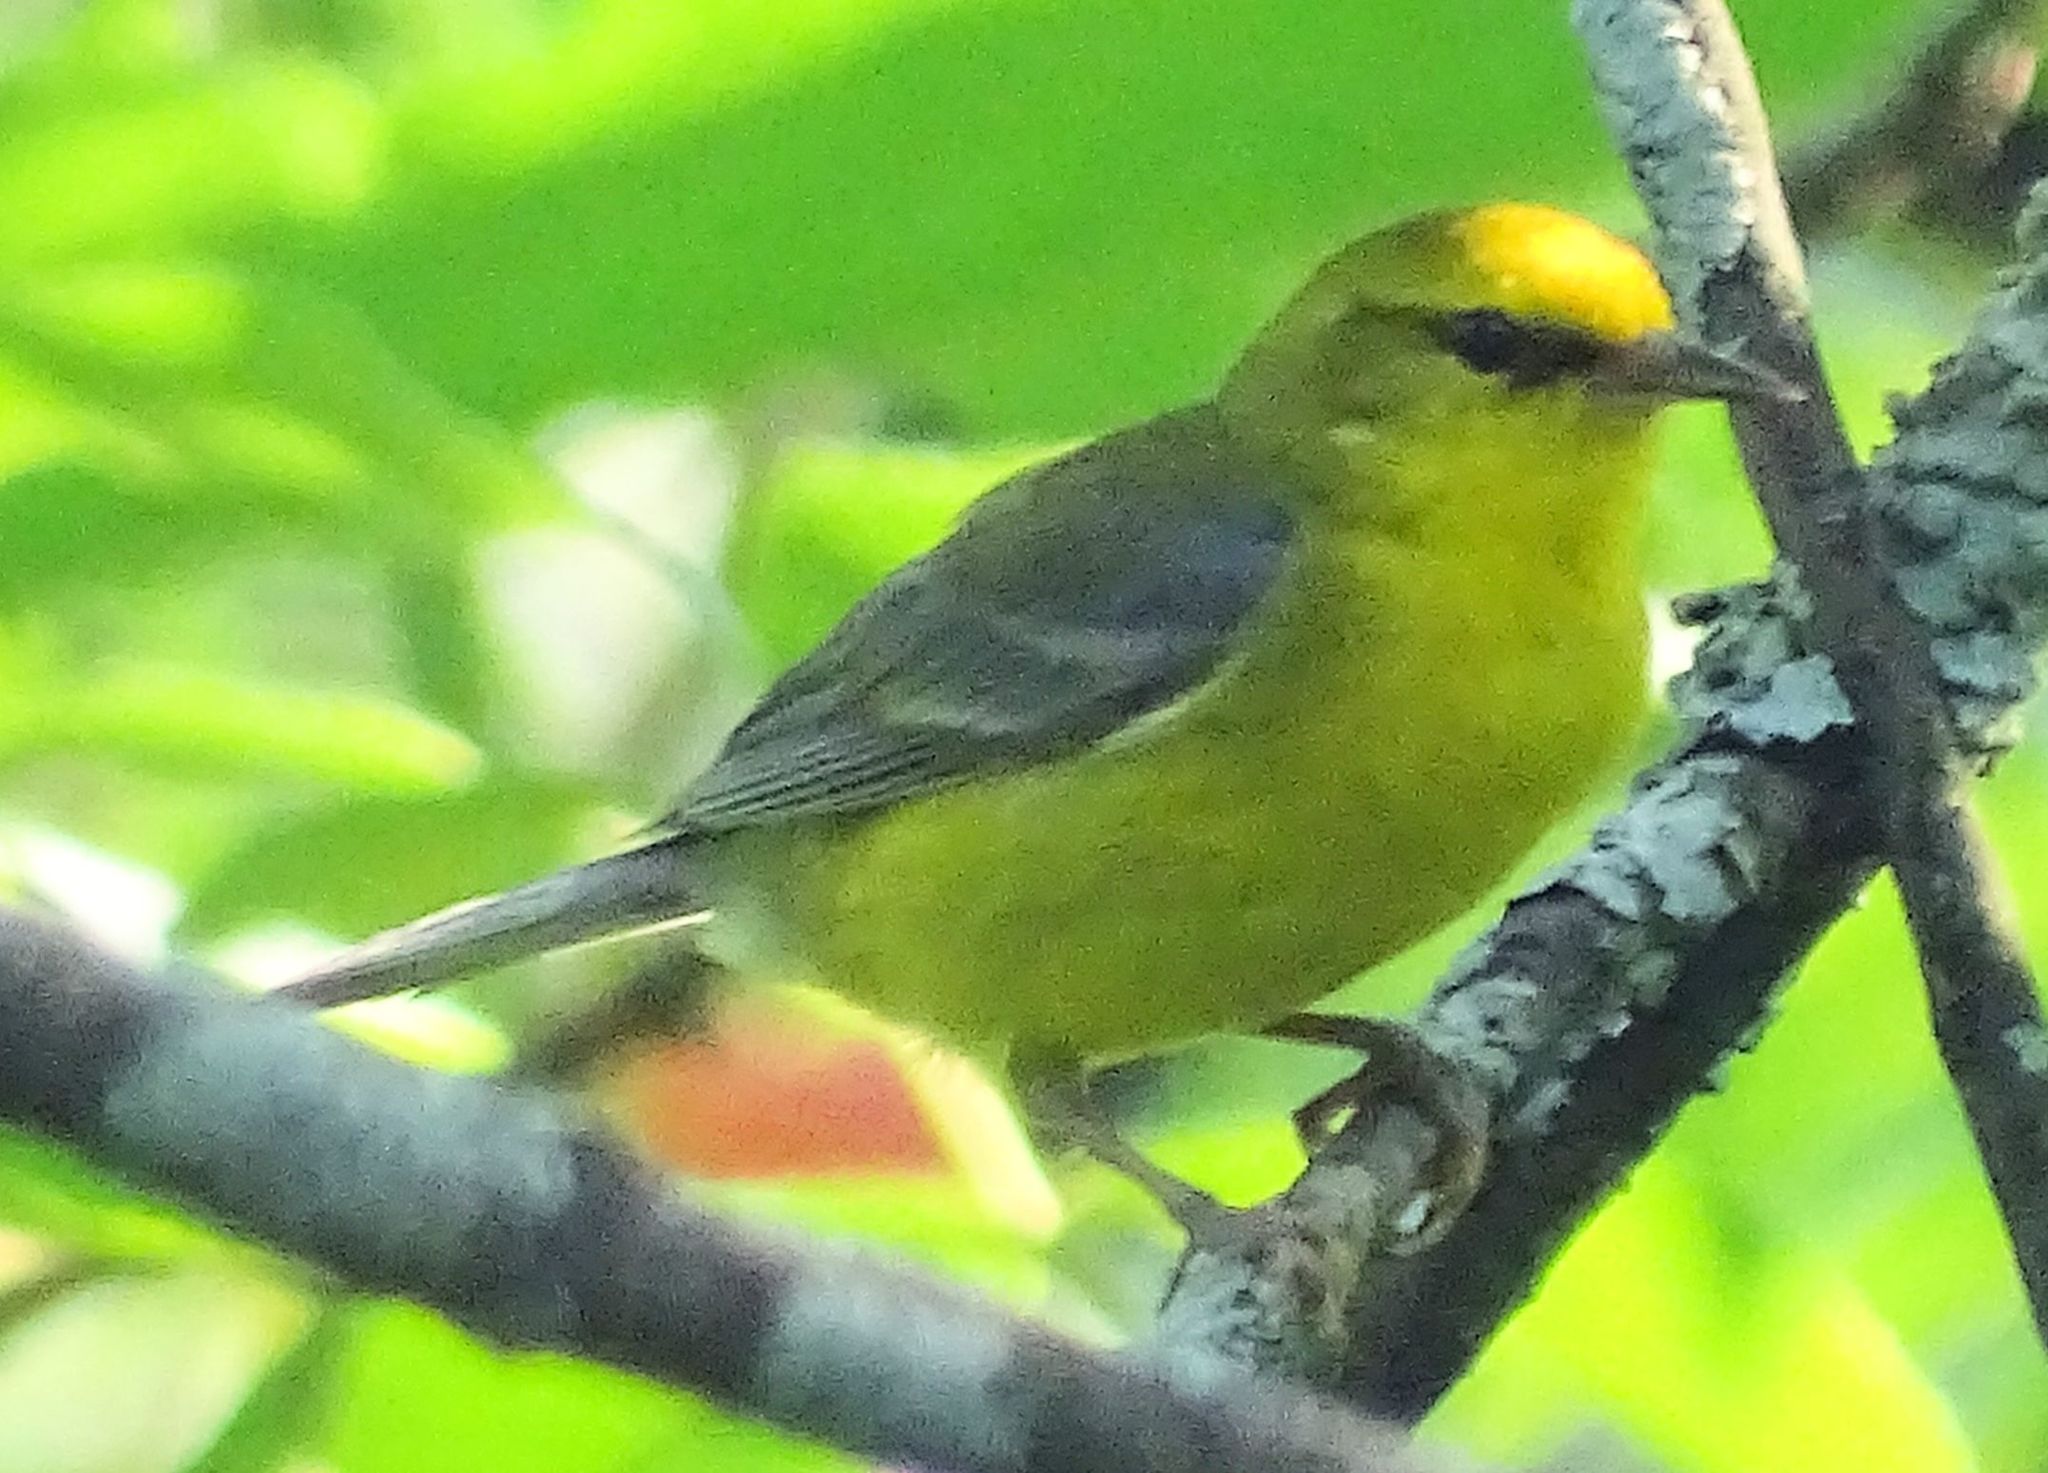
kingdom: Animalia
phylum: Chordata
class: Aves
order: Passeriformes
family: Parulidae
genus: Vermivora
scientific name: Vermivora cyanoptera
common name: Blue-winged warbler
